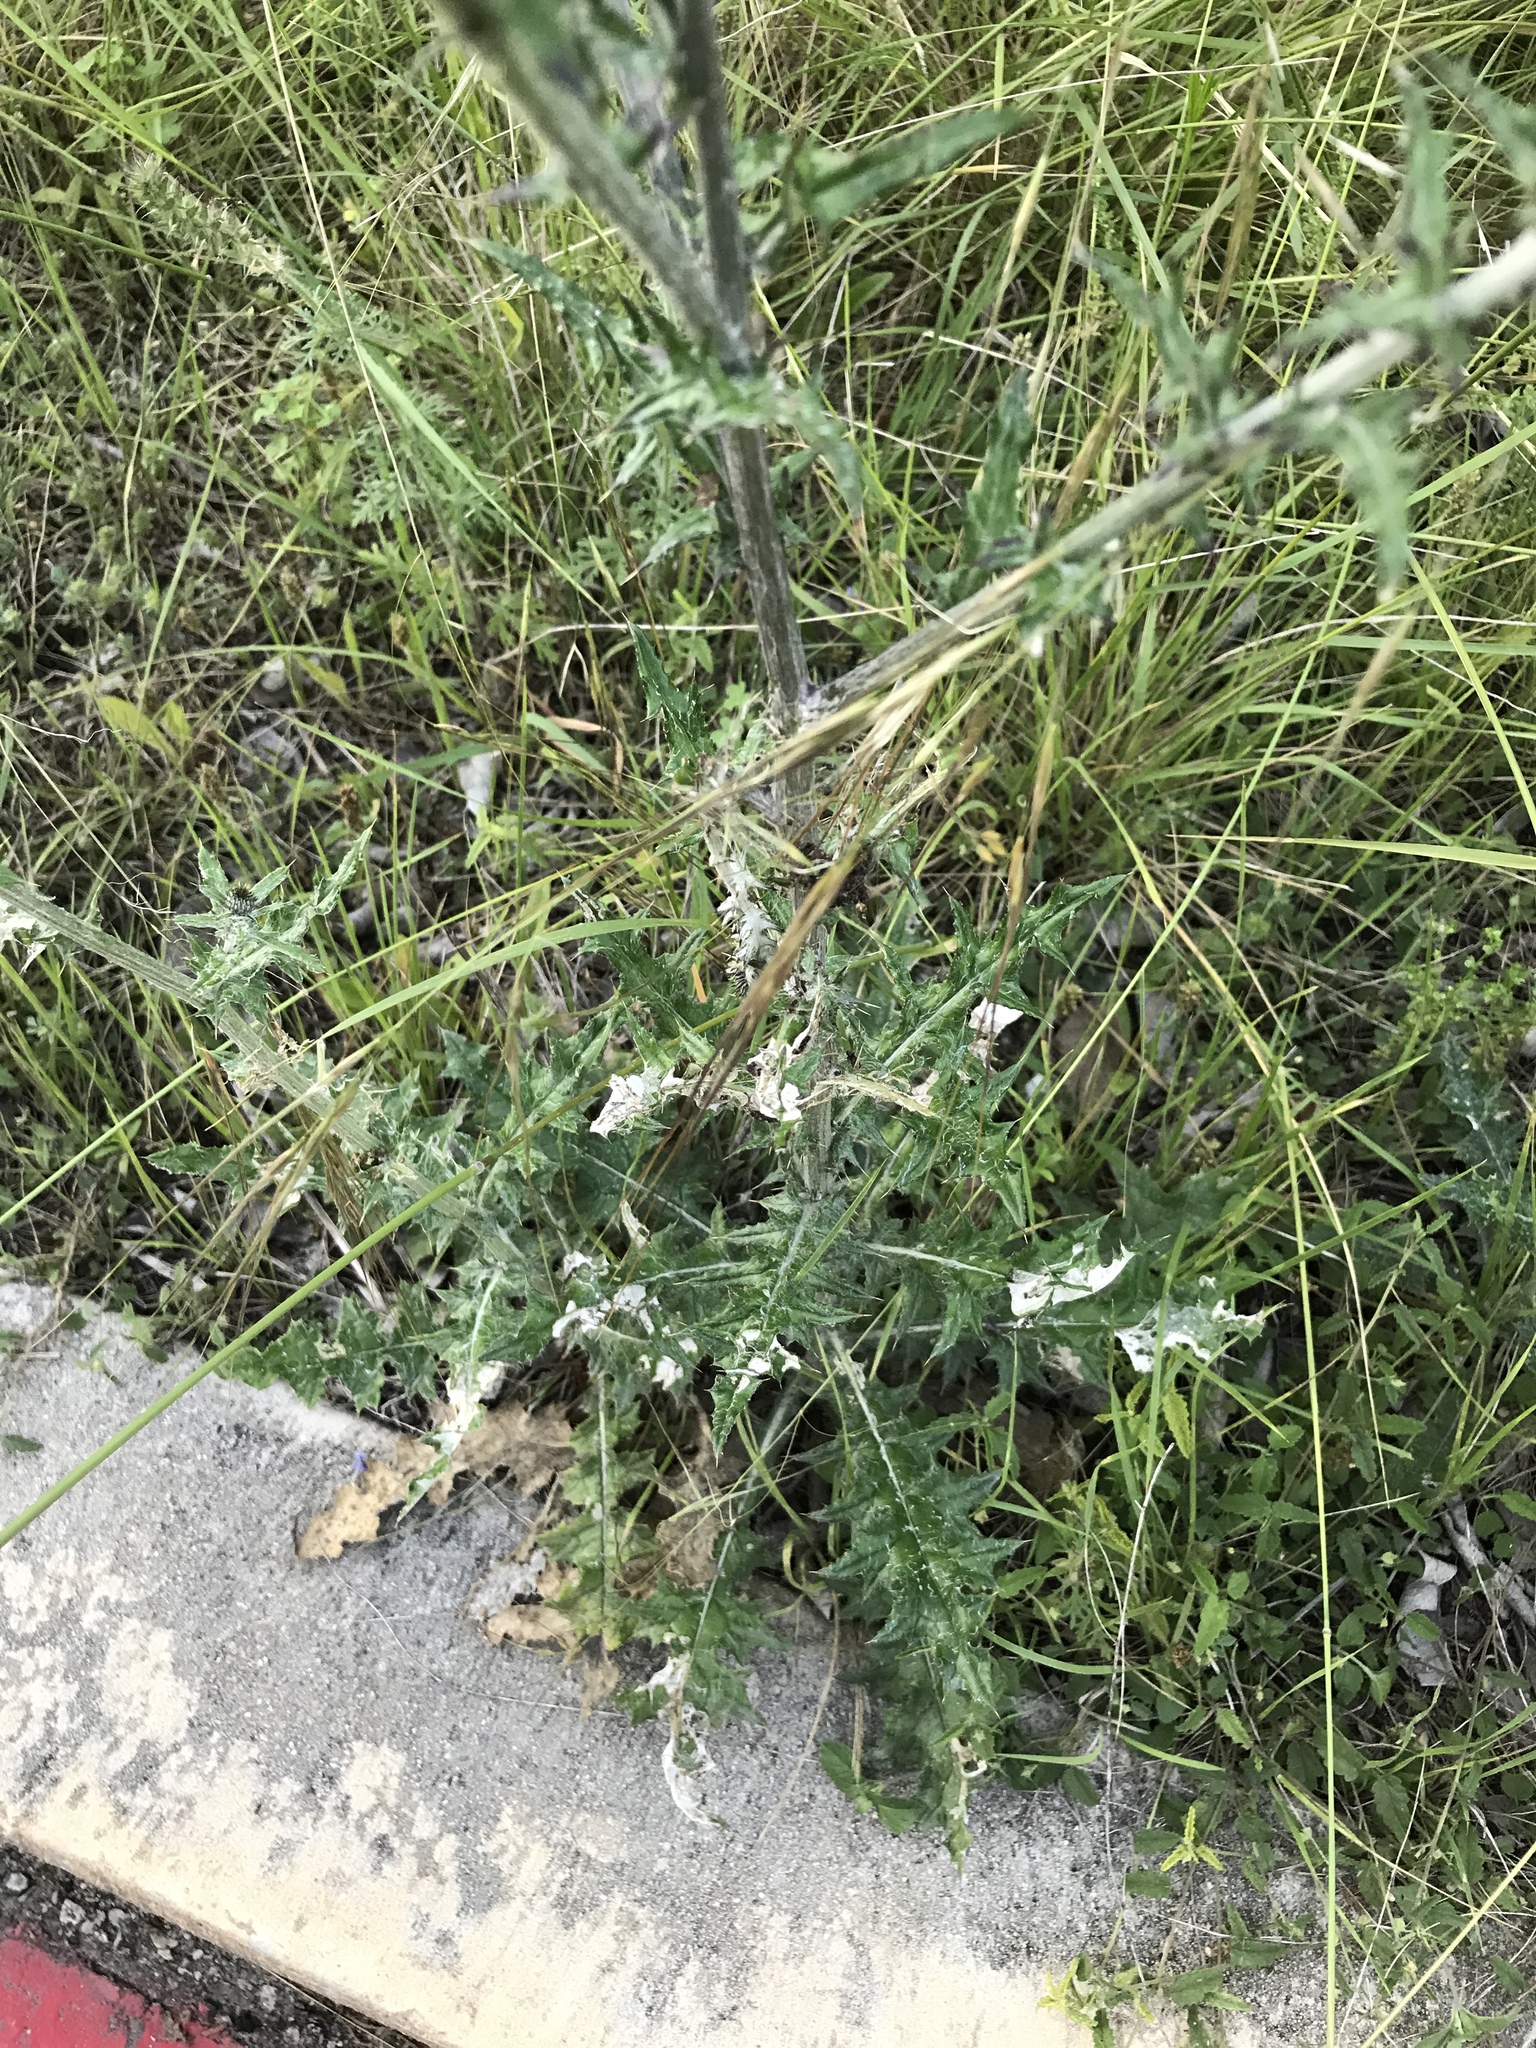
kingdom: Plantae
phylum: Tracheophyta
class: Magnoliopsida
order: Asterales
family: Asteraceae
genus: Cirsium
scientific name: Cirsium texanum
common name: Texas purple thistle
